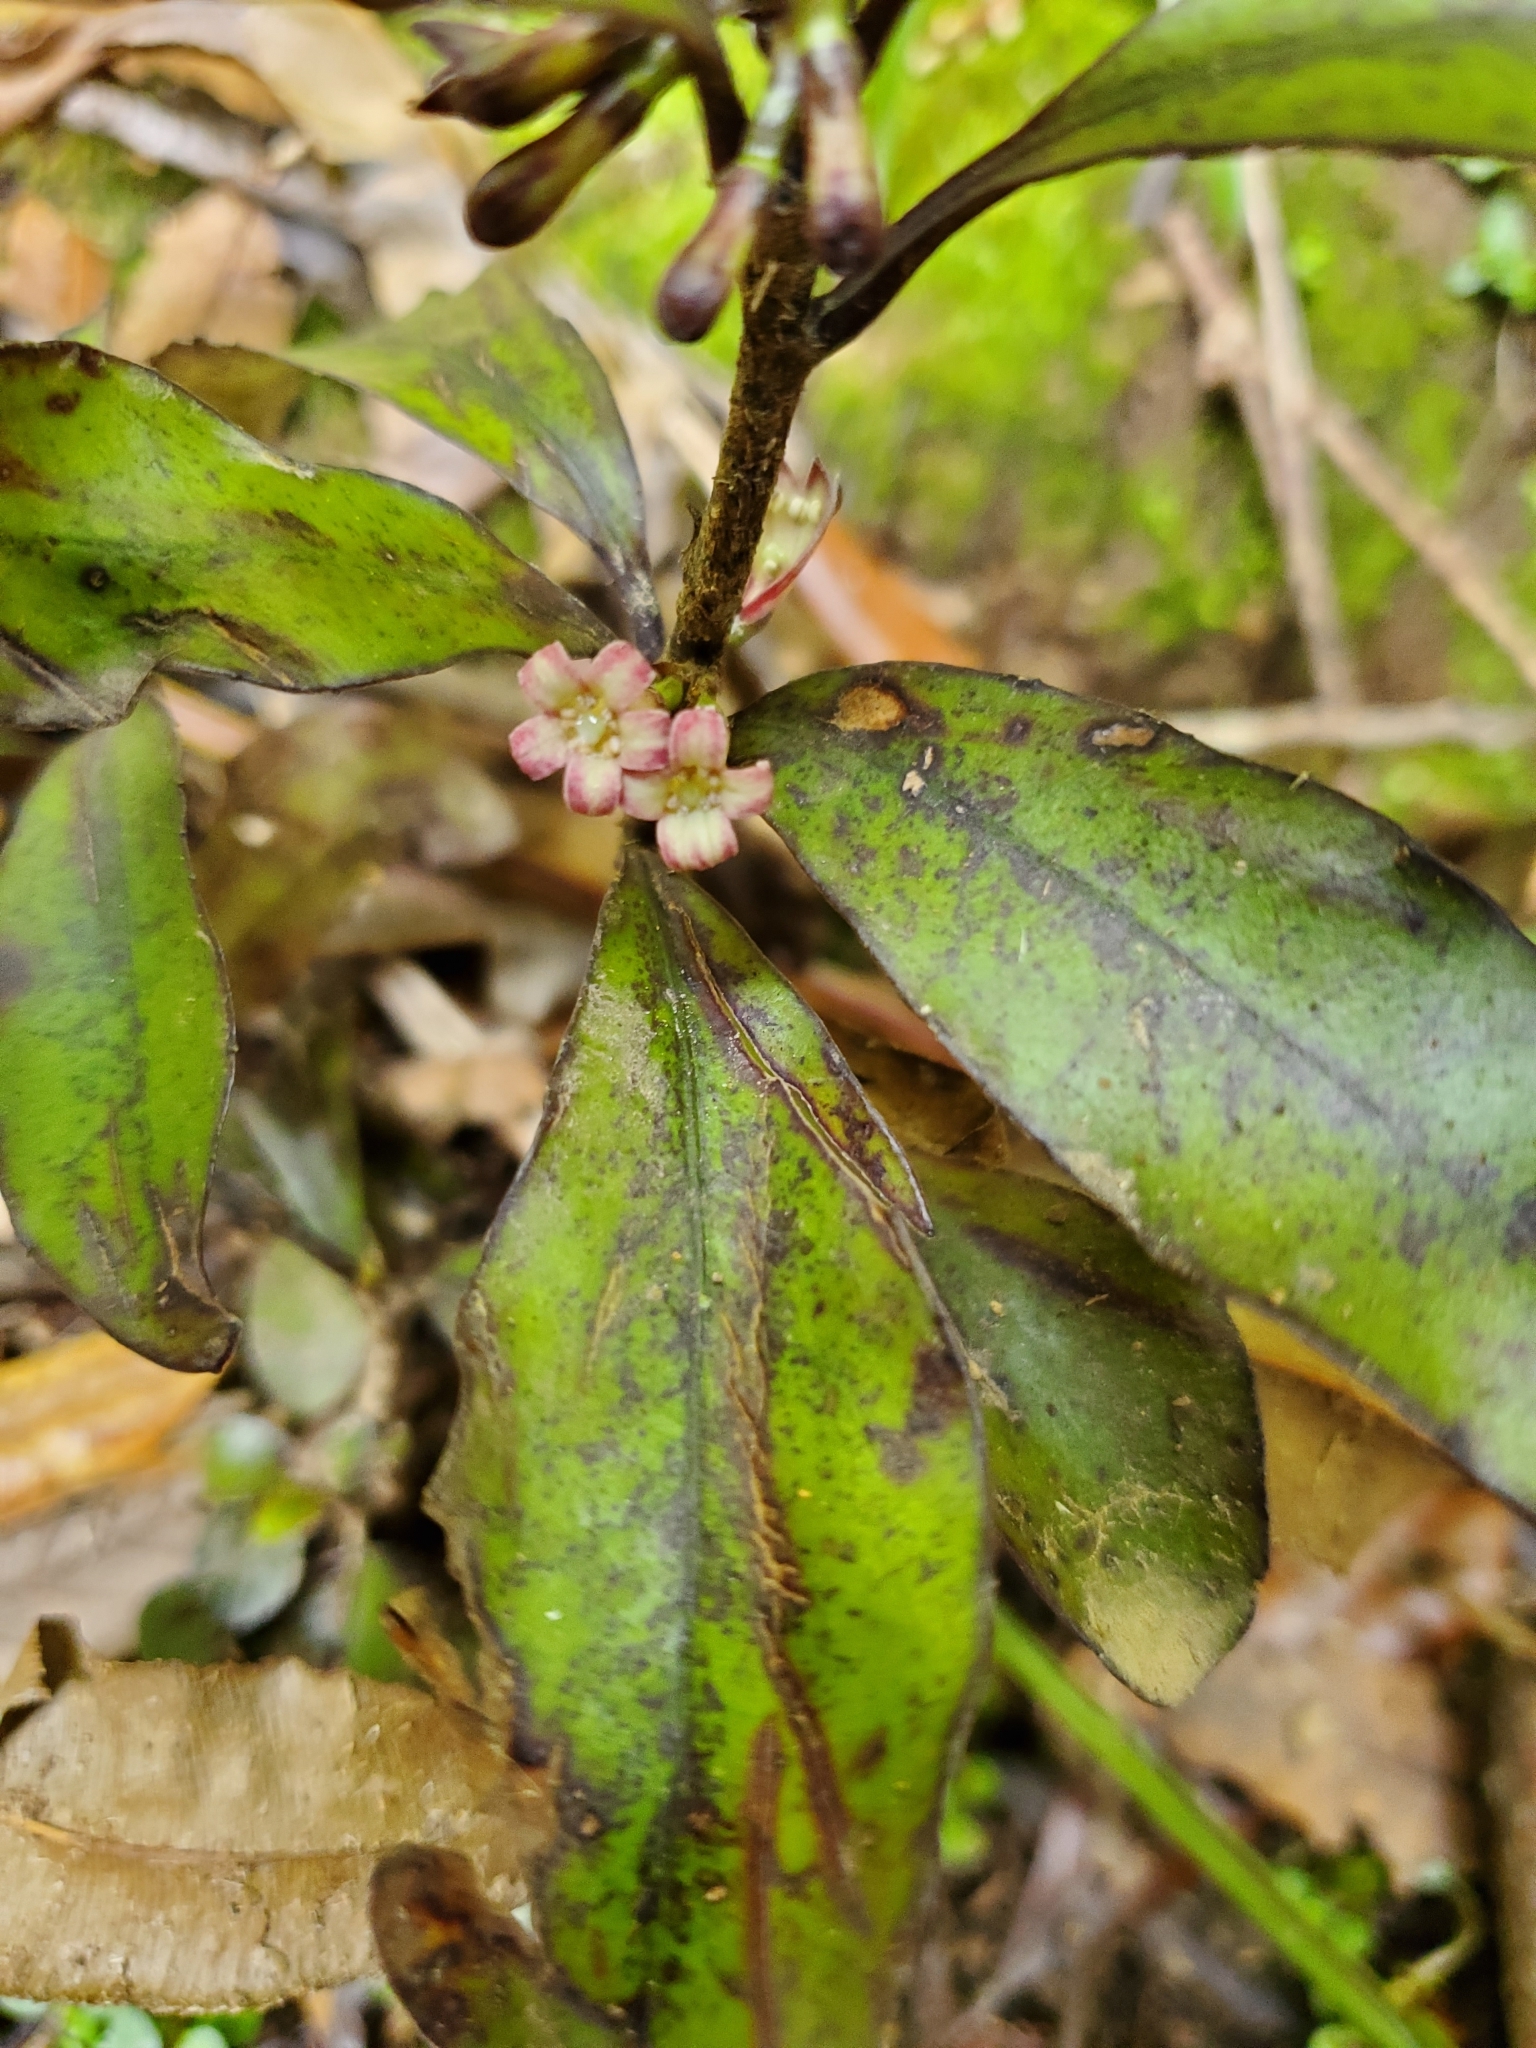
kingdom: Plantae
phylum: Tracheophyta
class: Magnoliopsida
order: Asterales
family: Alseuosmiaceae
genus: Alseuosmia
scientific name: Alseuosmia pusilla
